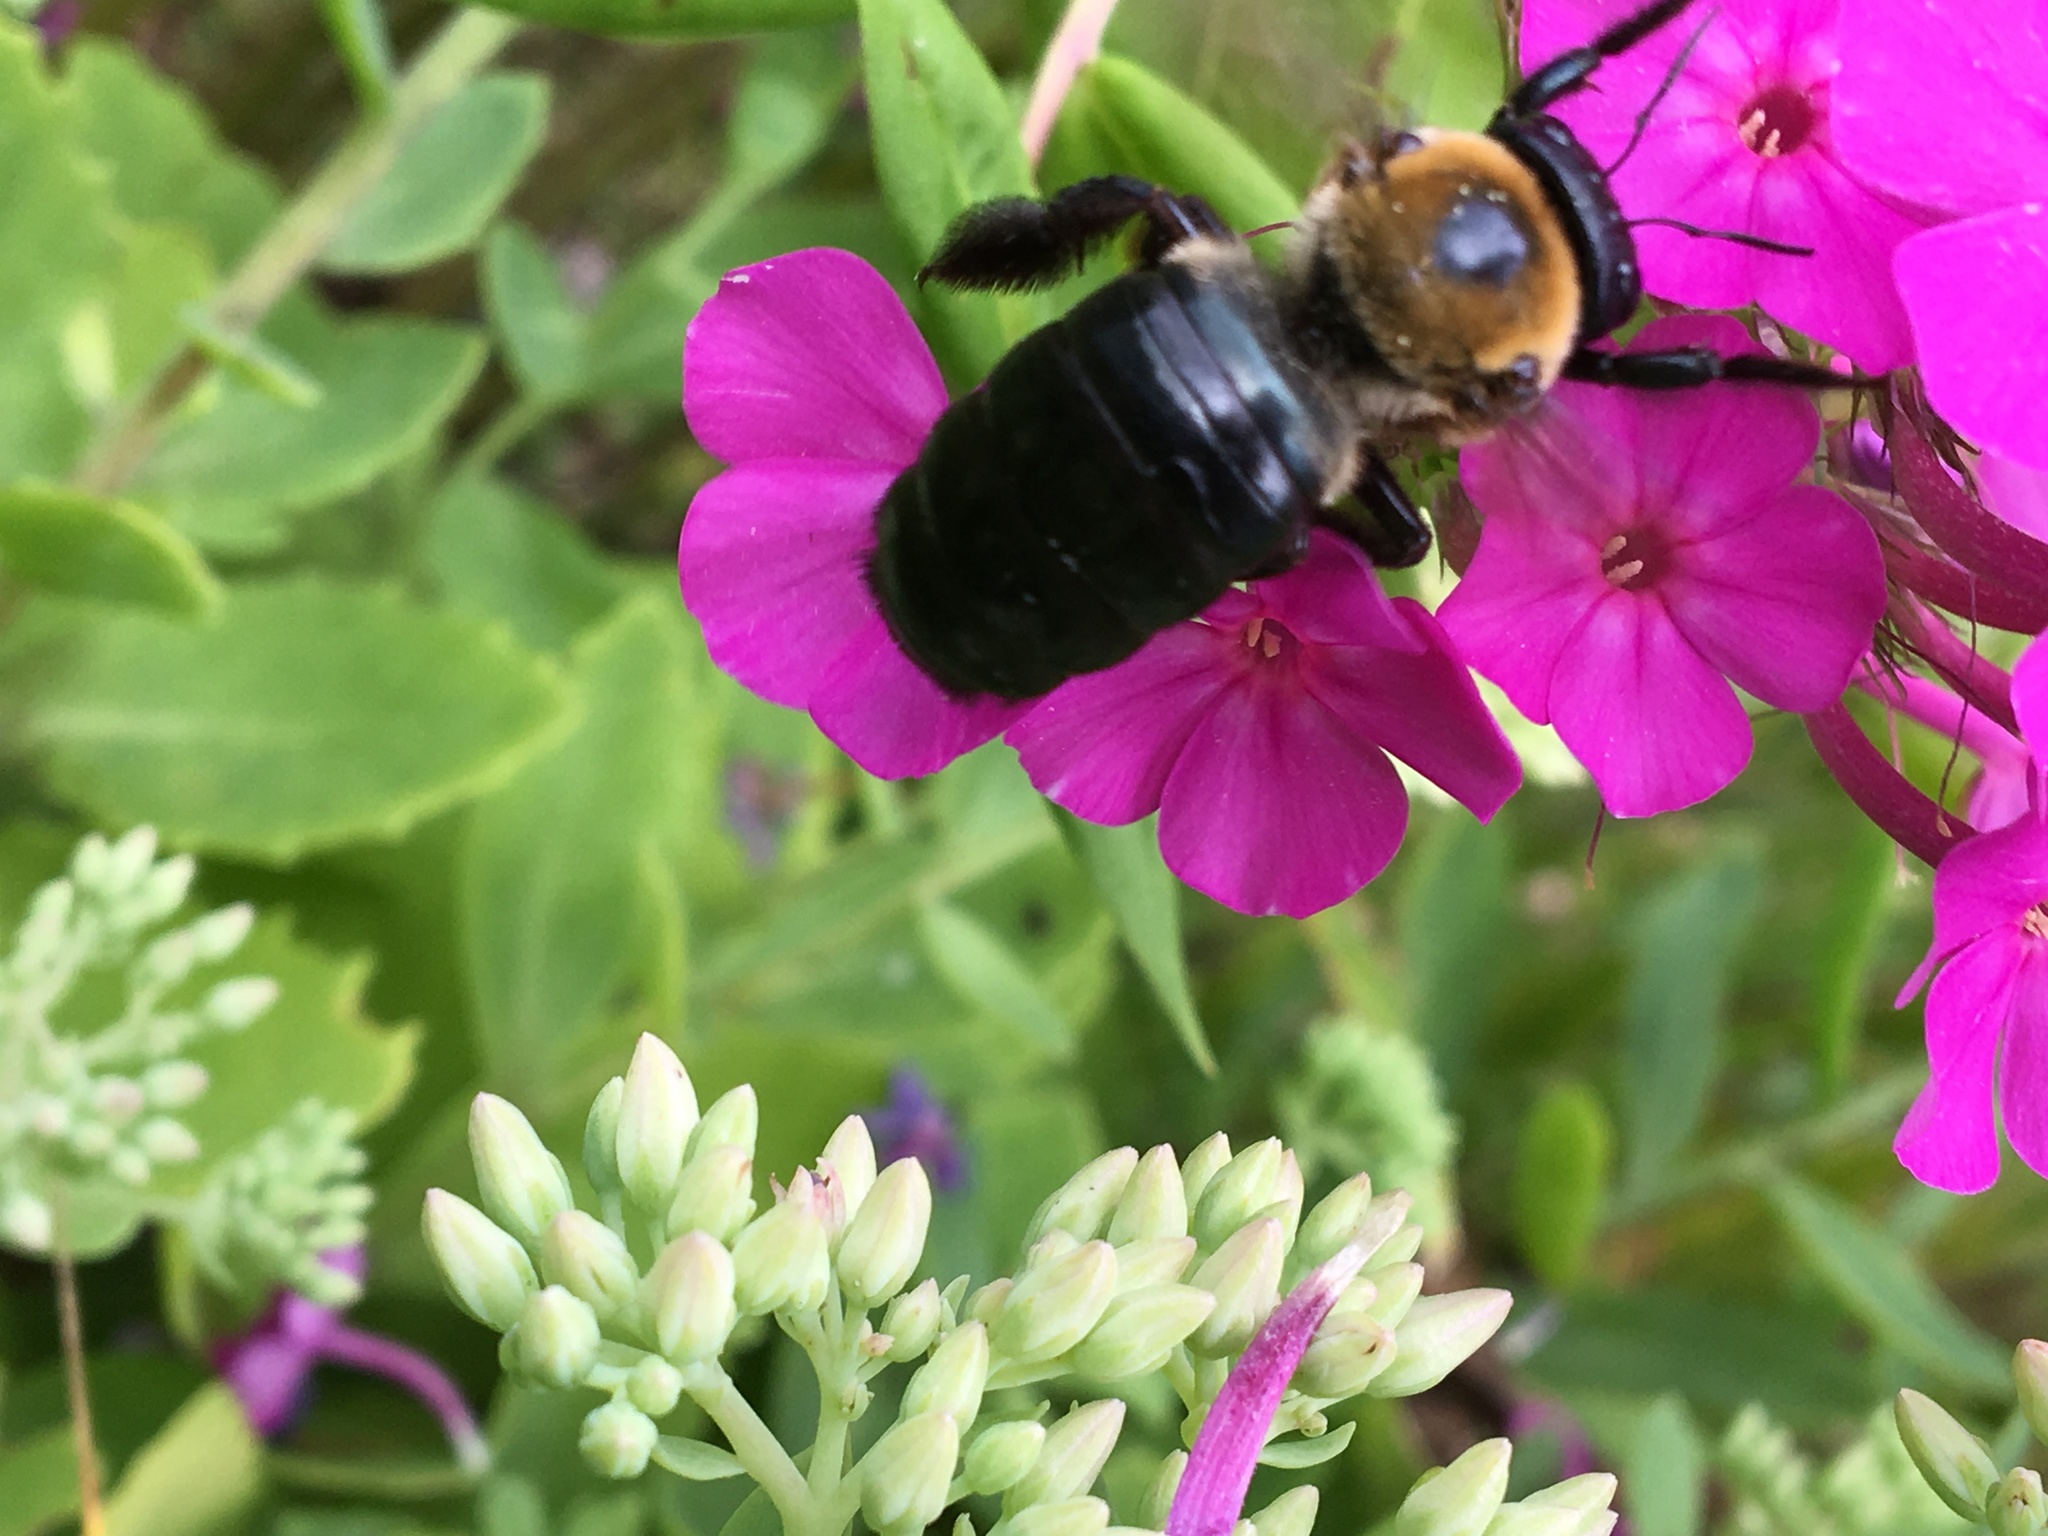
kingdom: Animalia
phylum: Arthropoda
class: Insecta
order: Hymenoptera
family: Apidae
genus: Xylocopa
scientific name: Xylocopa virginica
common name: Carpenter bee
